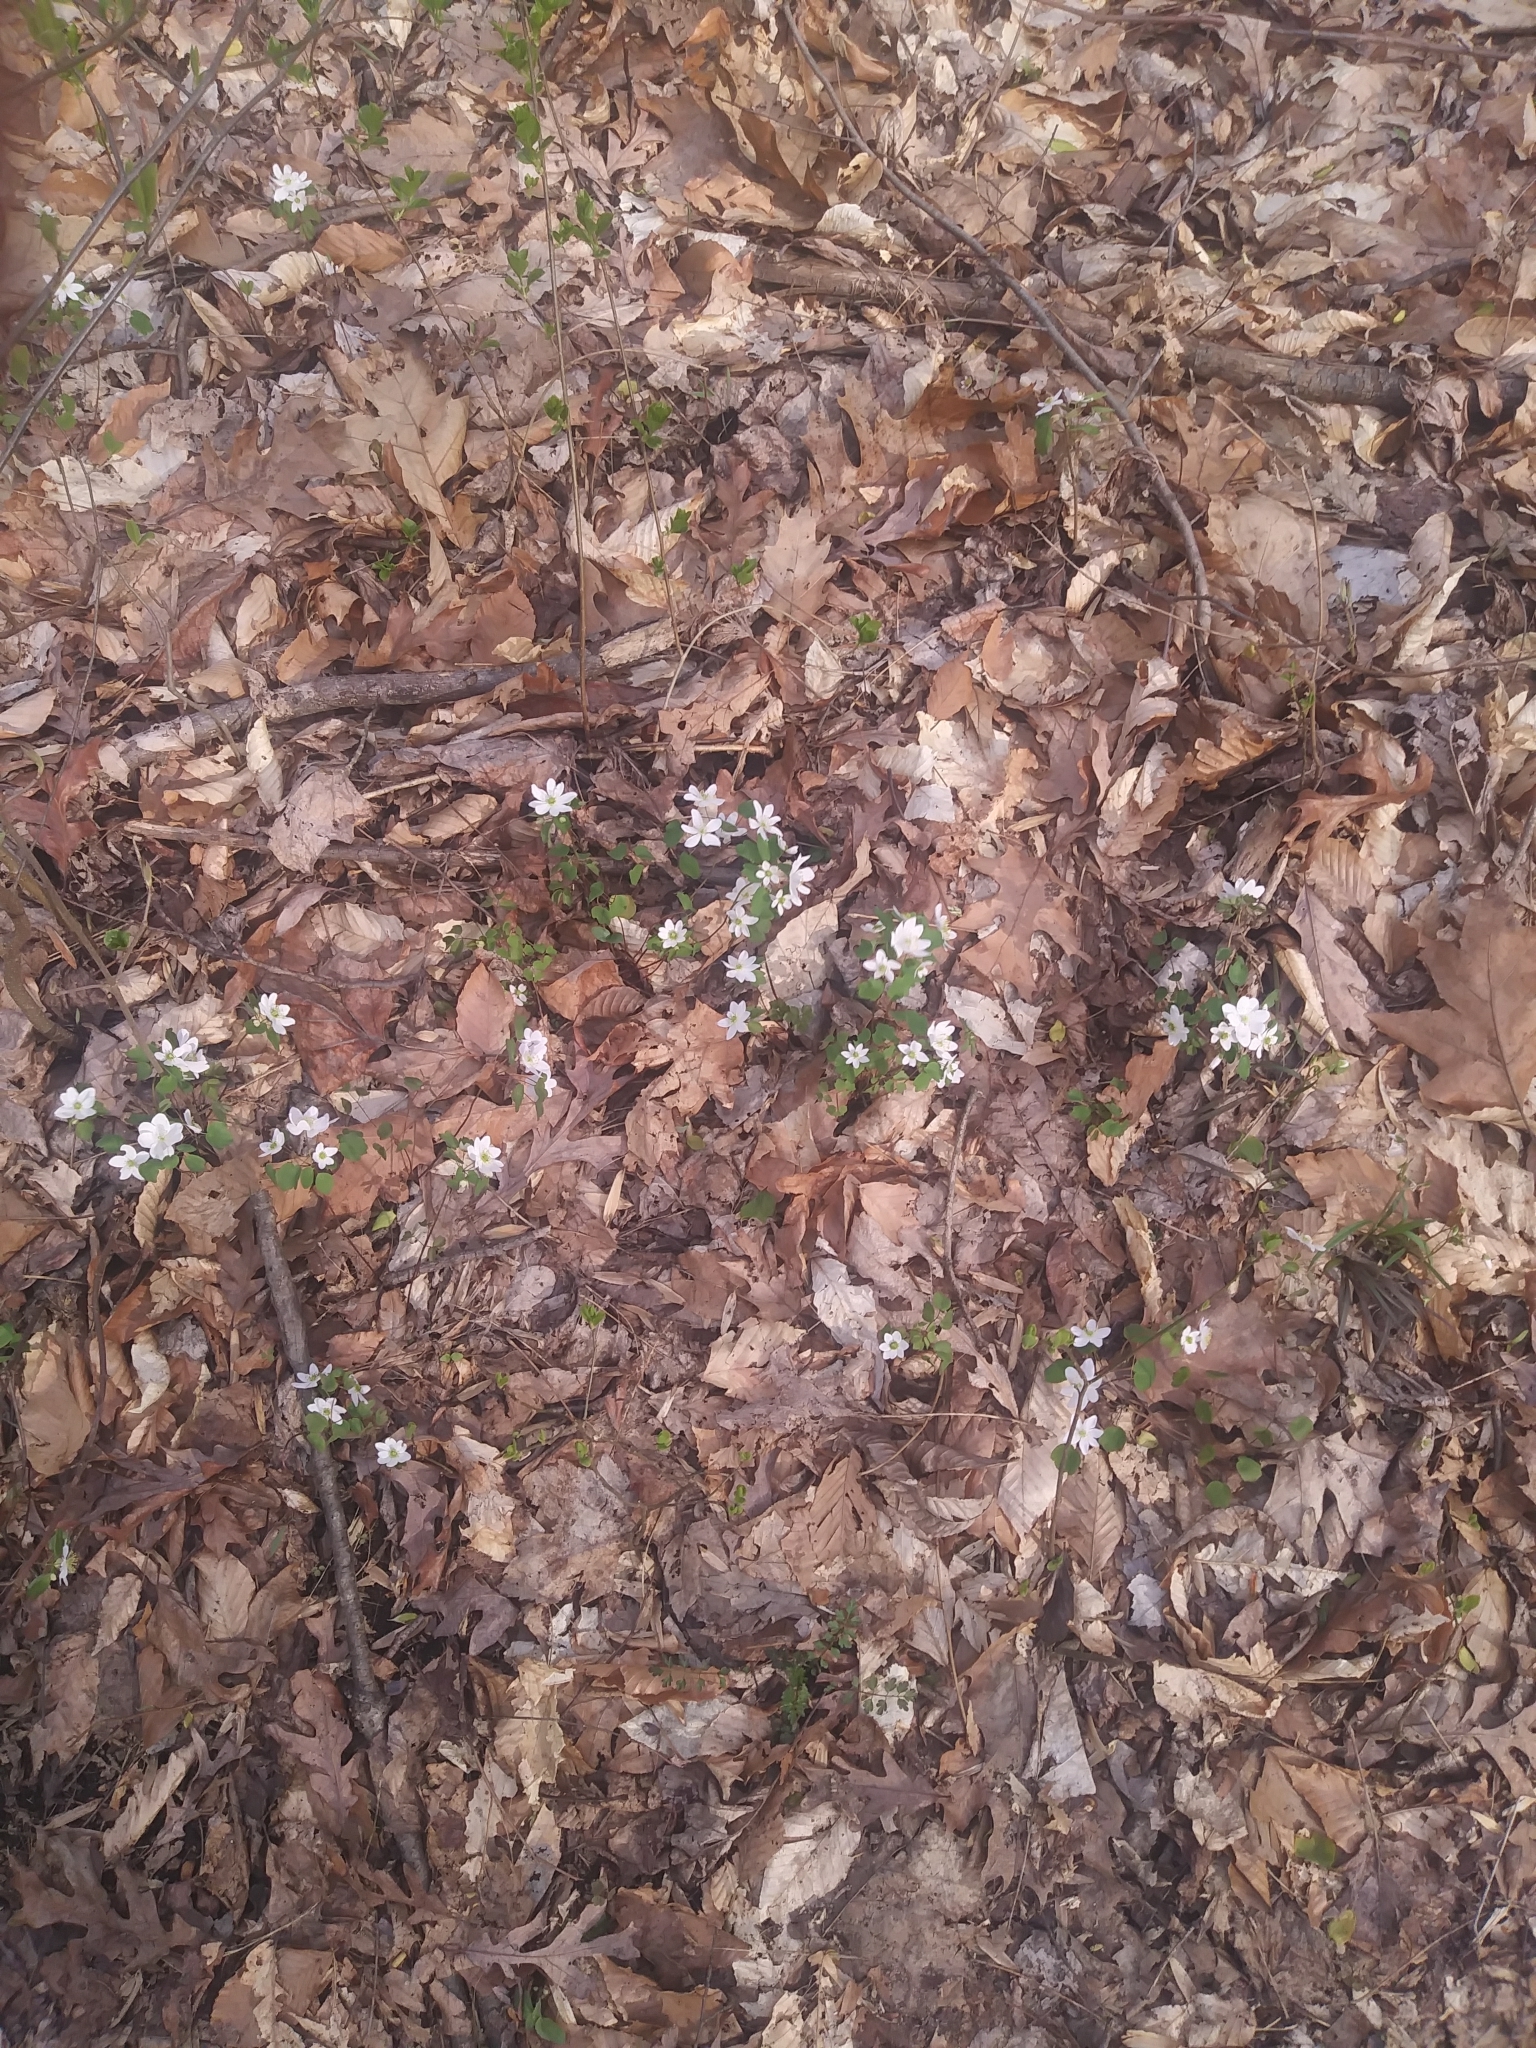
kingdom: Plantae
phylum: Tracheophyta
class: Magnoliopsida
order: Ranunculales
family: Ranunculaceae
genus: Thalictrum
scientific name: Thalictrum thalictroides
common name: Rue-anemone
